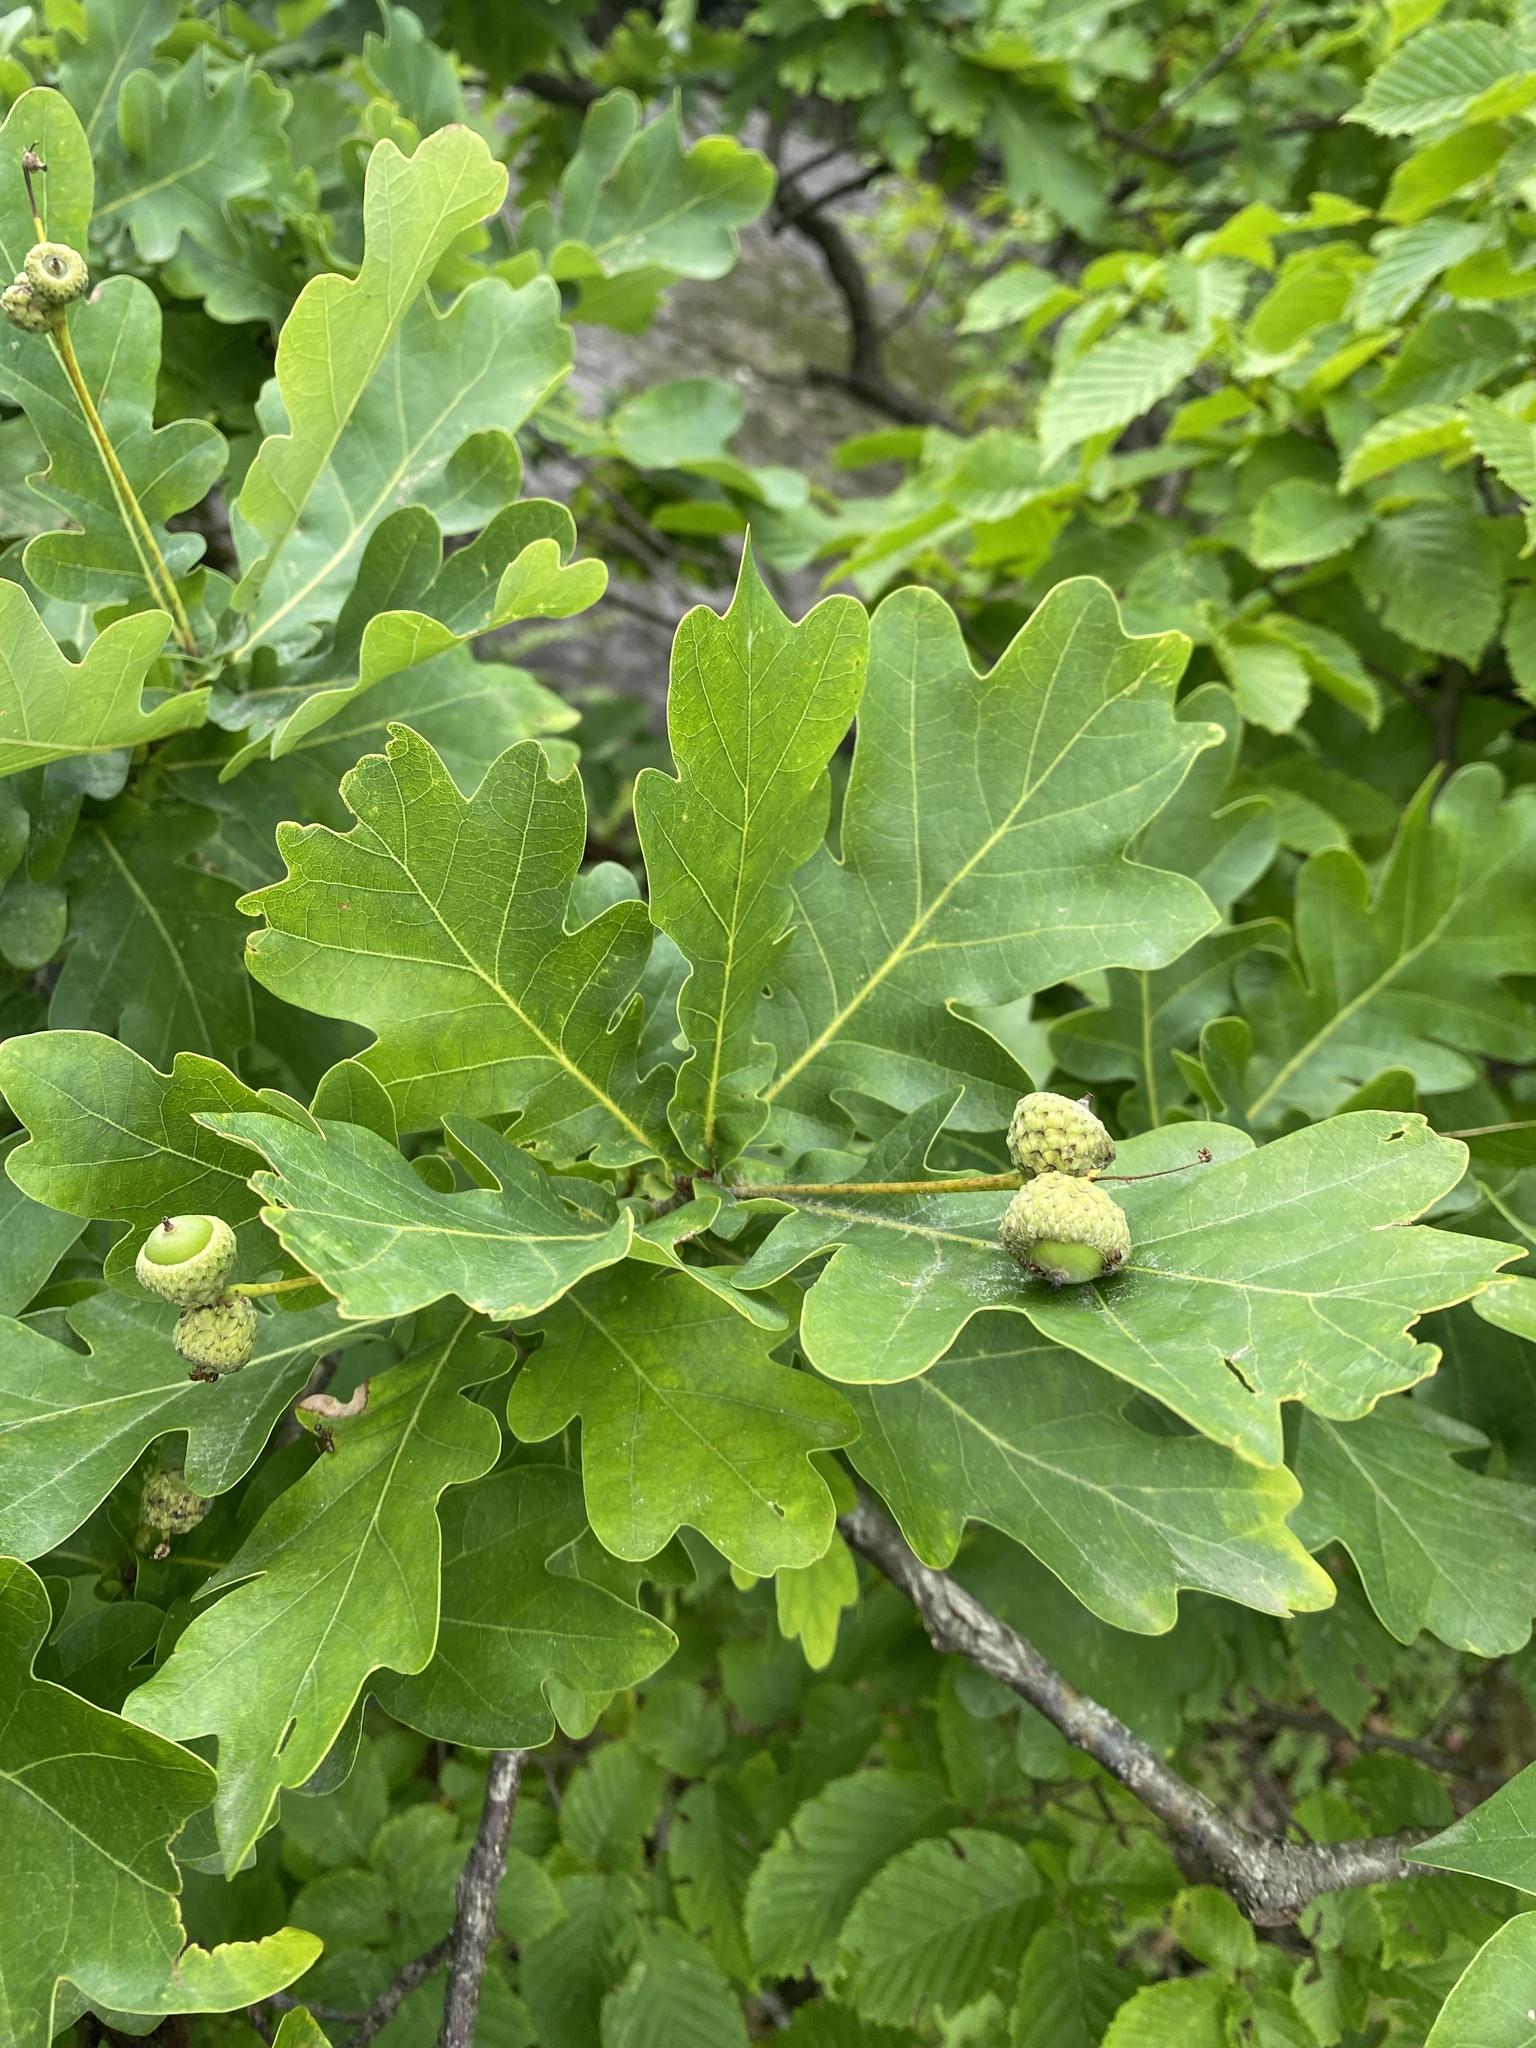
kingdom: Plantae
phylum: Tracheophyta
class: Magnoliopsida
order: Fagales
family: Fagaceae
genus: Quercus
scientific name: Quercus robur
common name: Pedunculate oak
